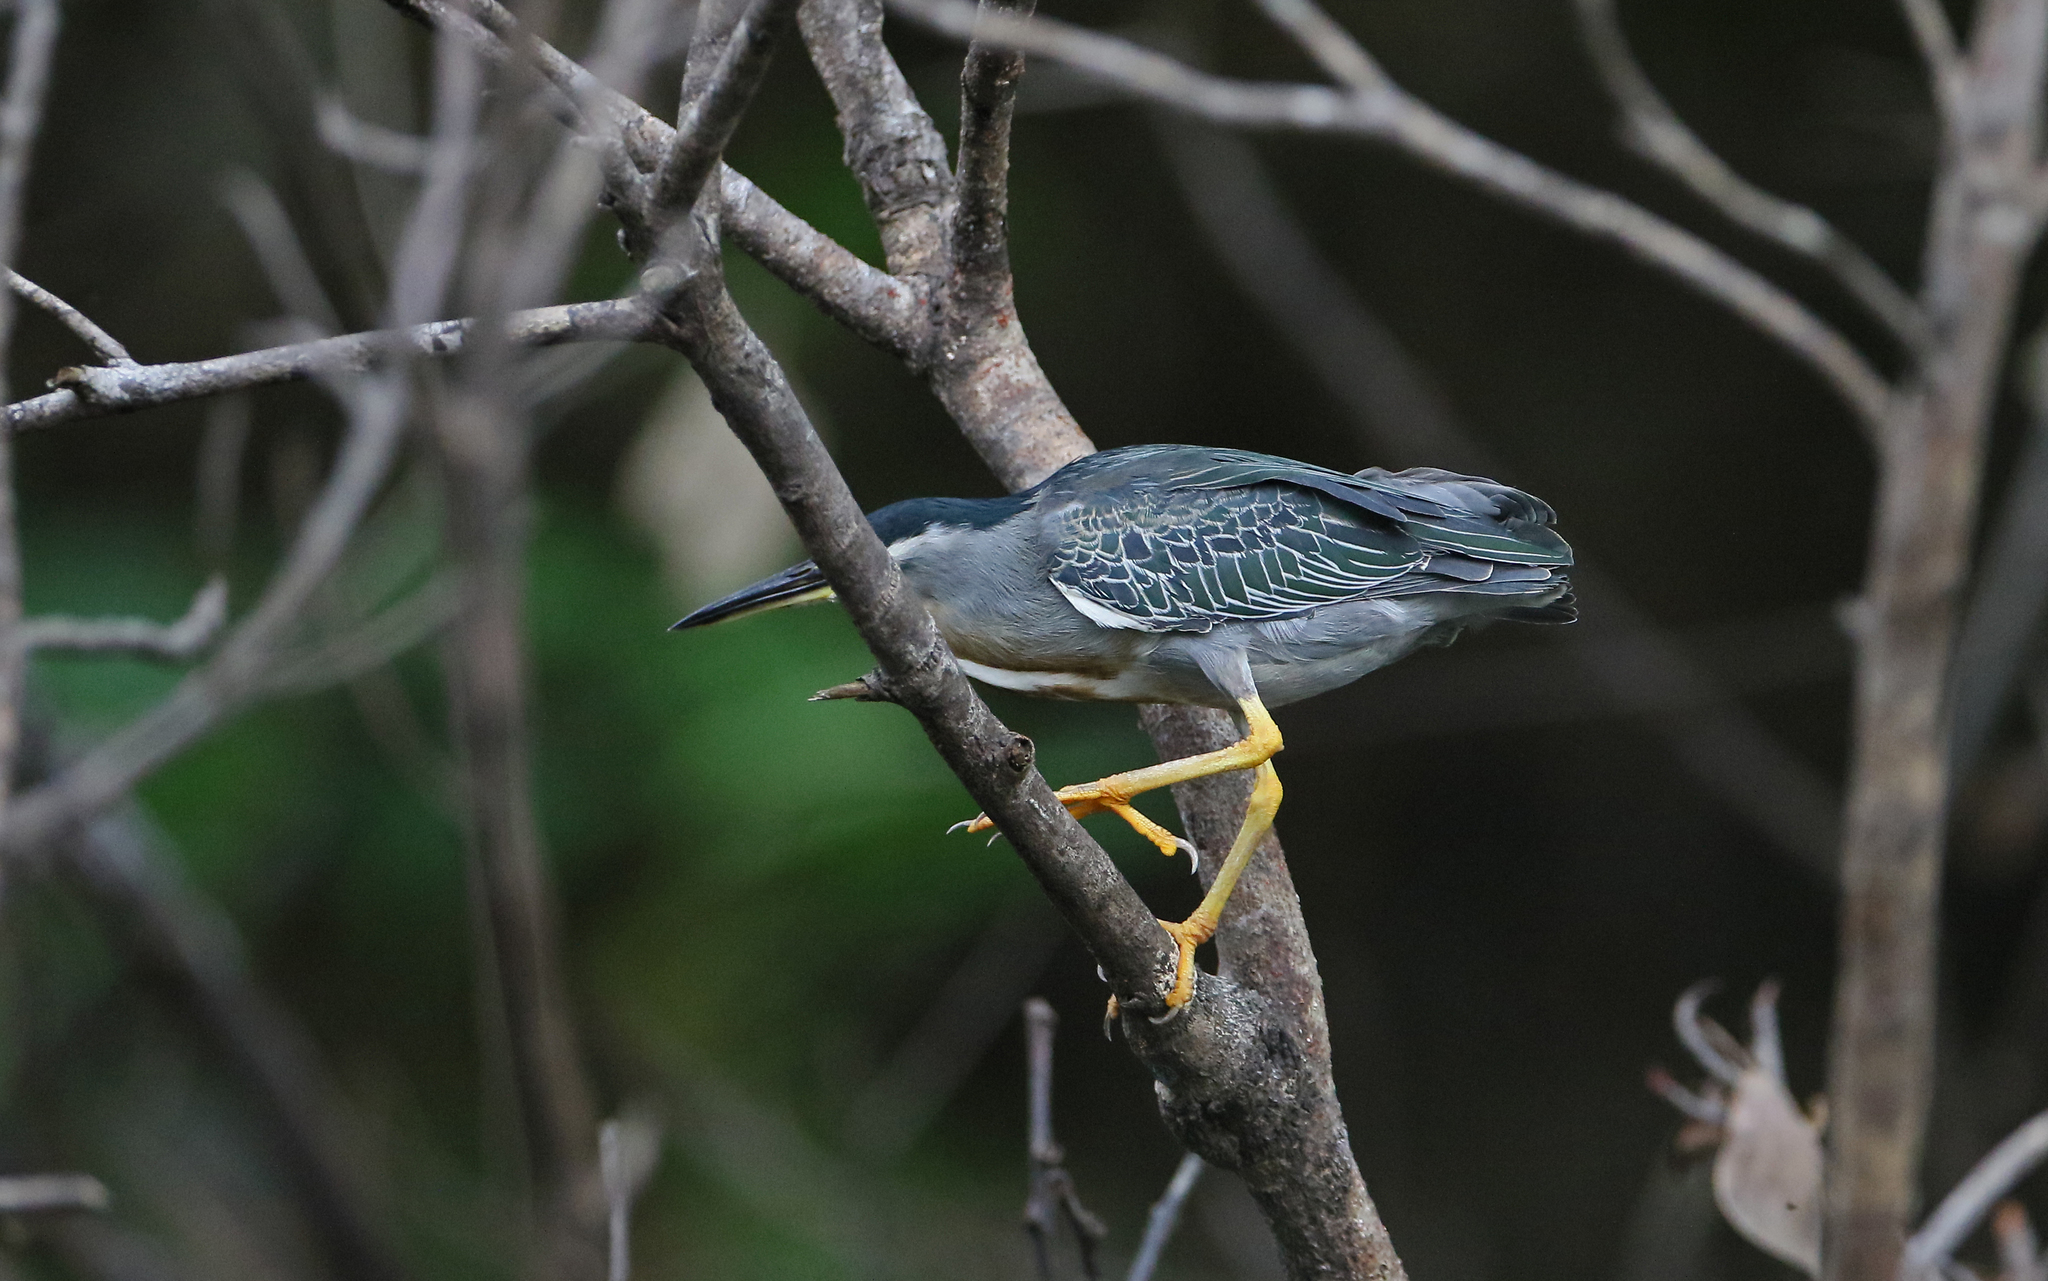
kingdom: Animalia
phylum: Chordata
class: Aves
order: Pelecaniformes
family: Ardeidae
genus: Butorides
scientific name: Butorides striata
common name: Striated heron
